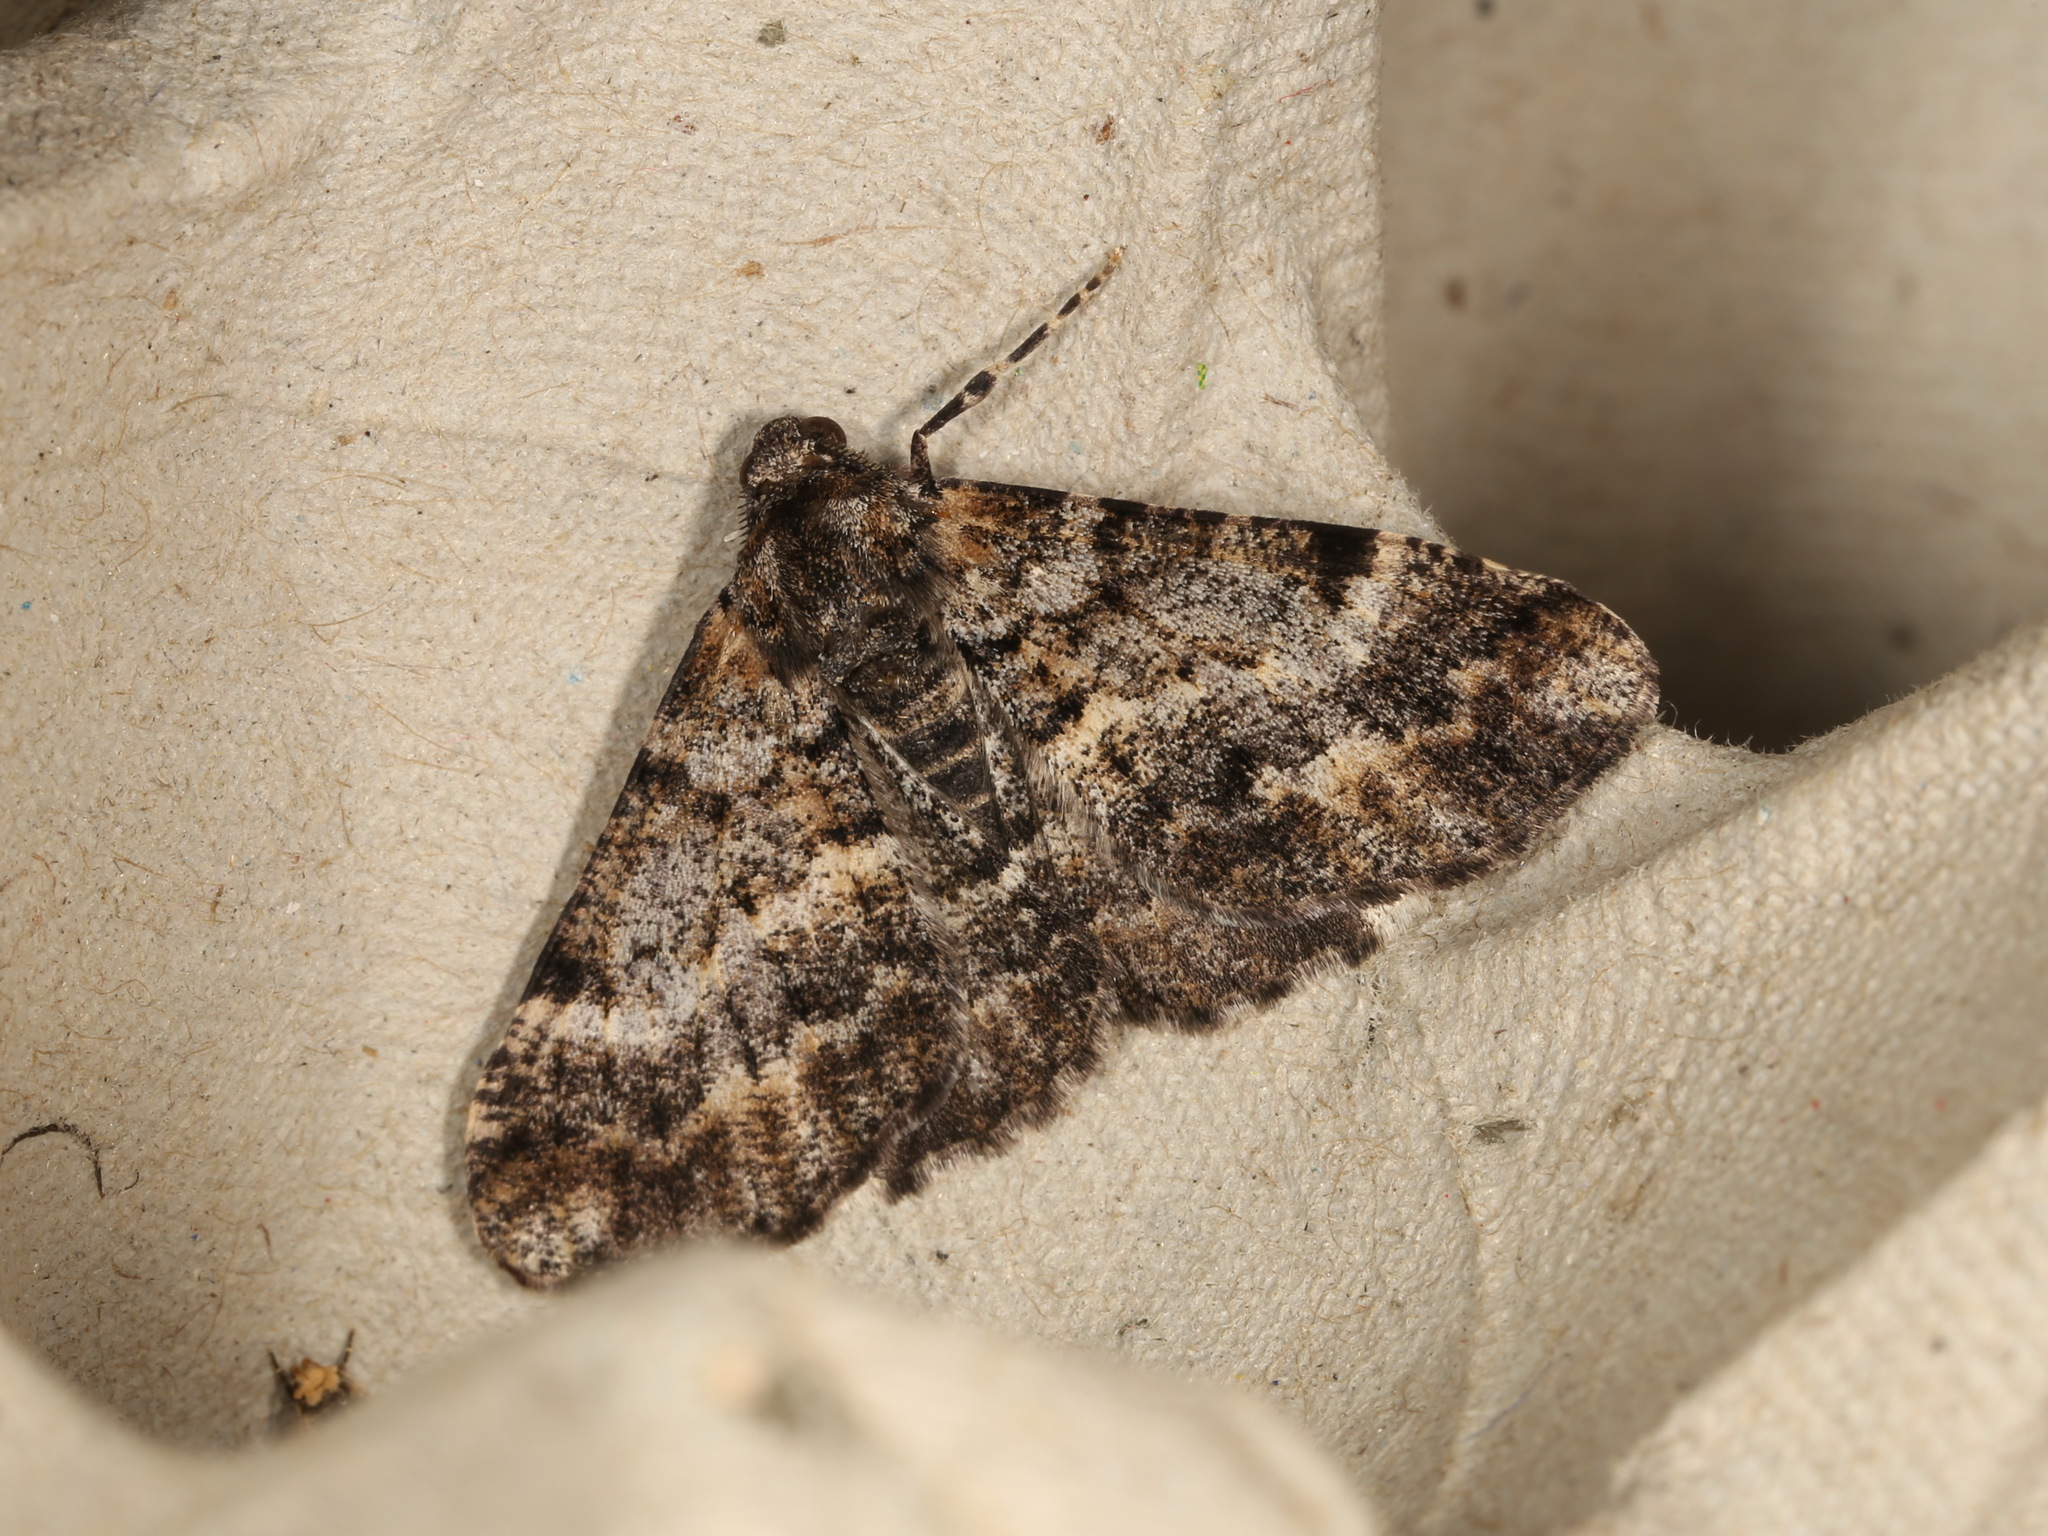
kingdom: Animalia
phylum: Arthropoda
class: Insecta
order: Lepidoptera
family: Geometridae
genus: Gastrinodes
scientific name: Gastrinodes argoplaca
